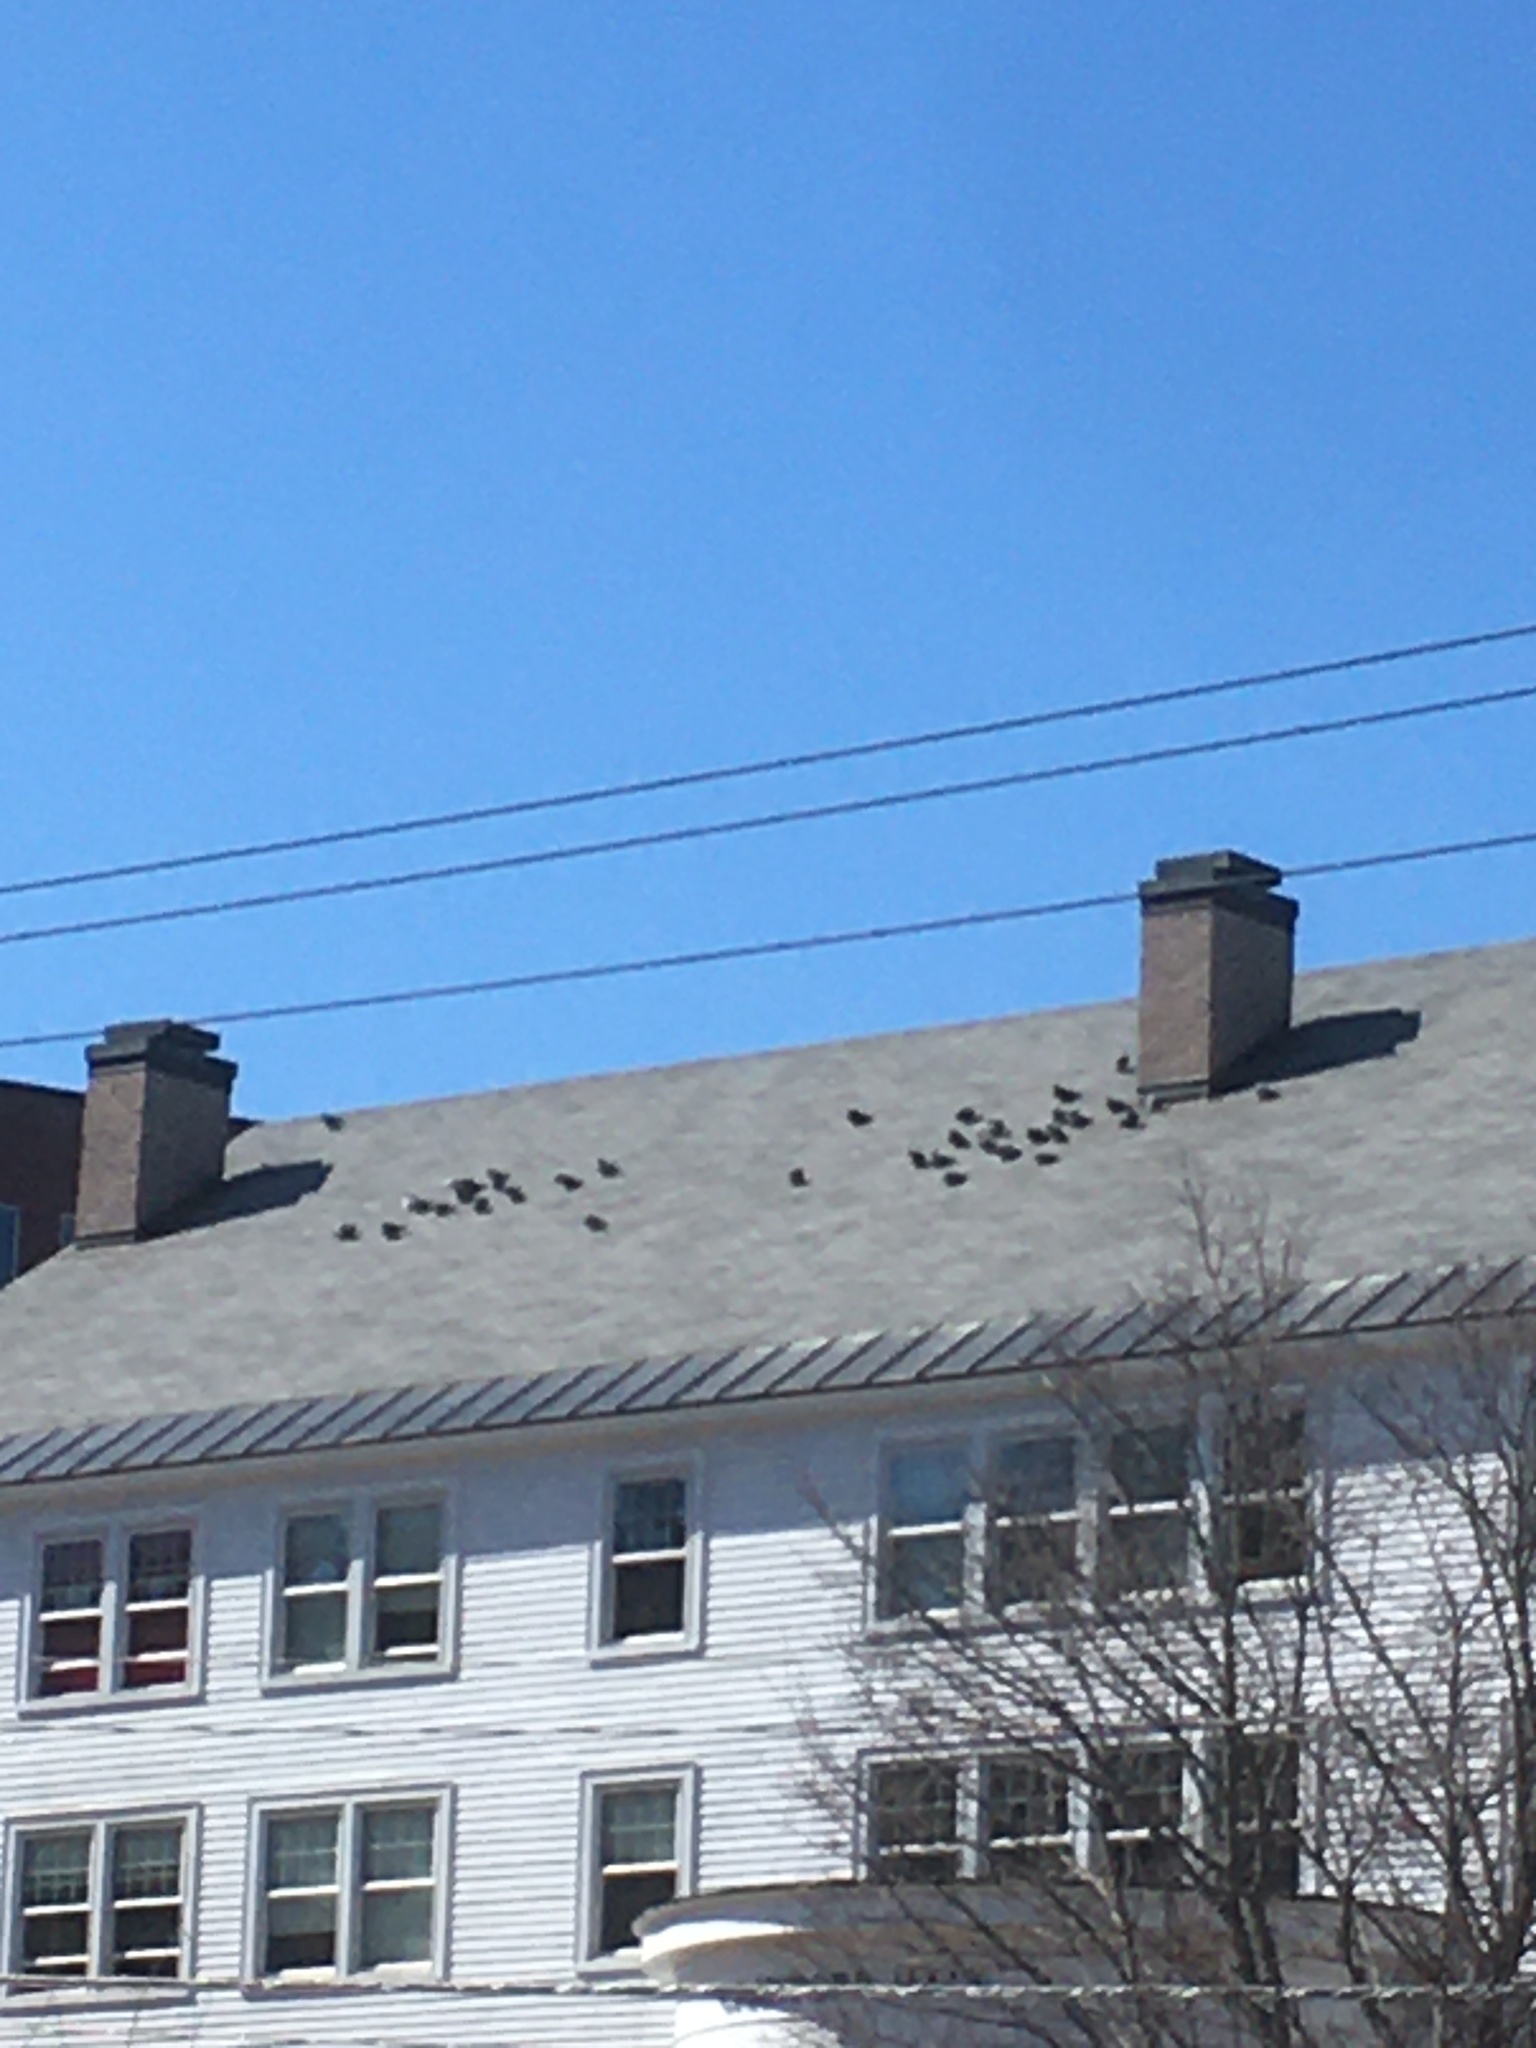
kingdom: Animalia
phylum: Chordata
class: Aves
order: Columbiformes
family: Columbidae
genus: Columba
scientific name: Columba livia
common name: Rock pigeon
